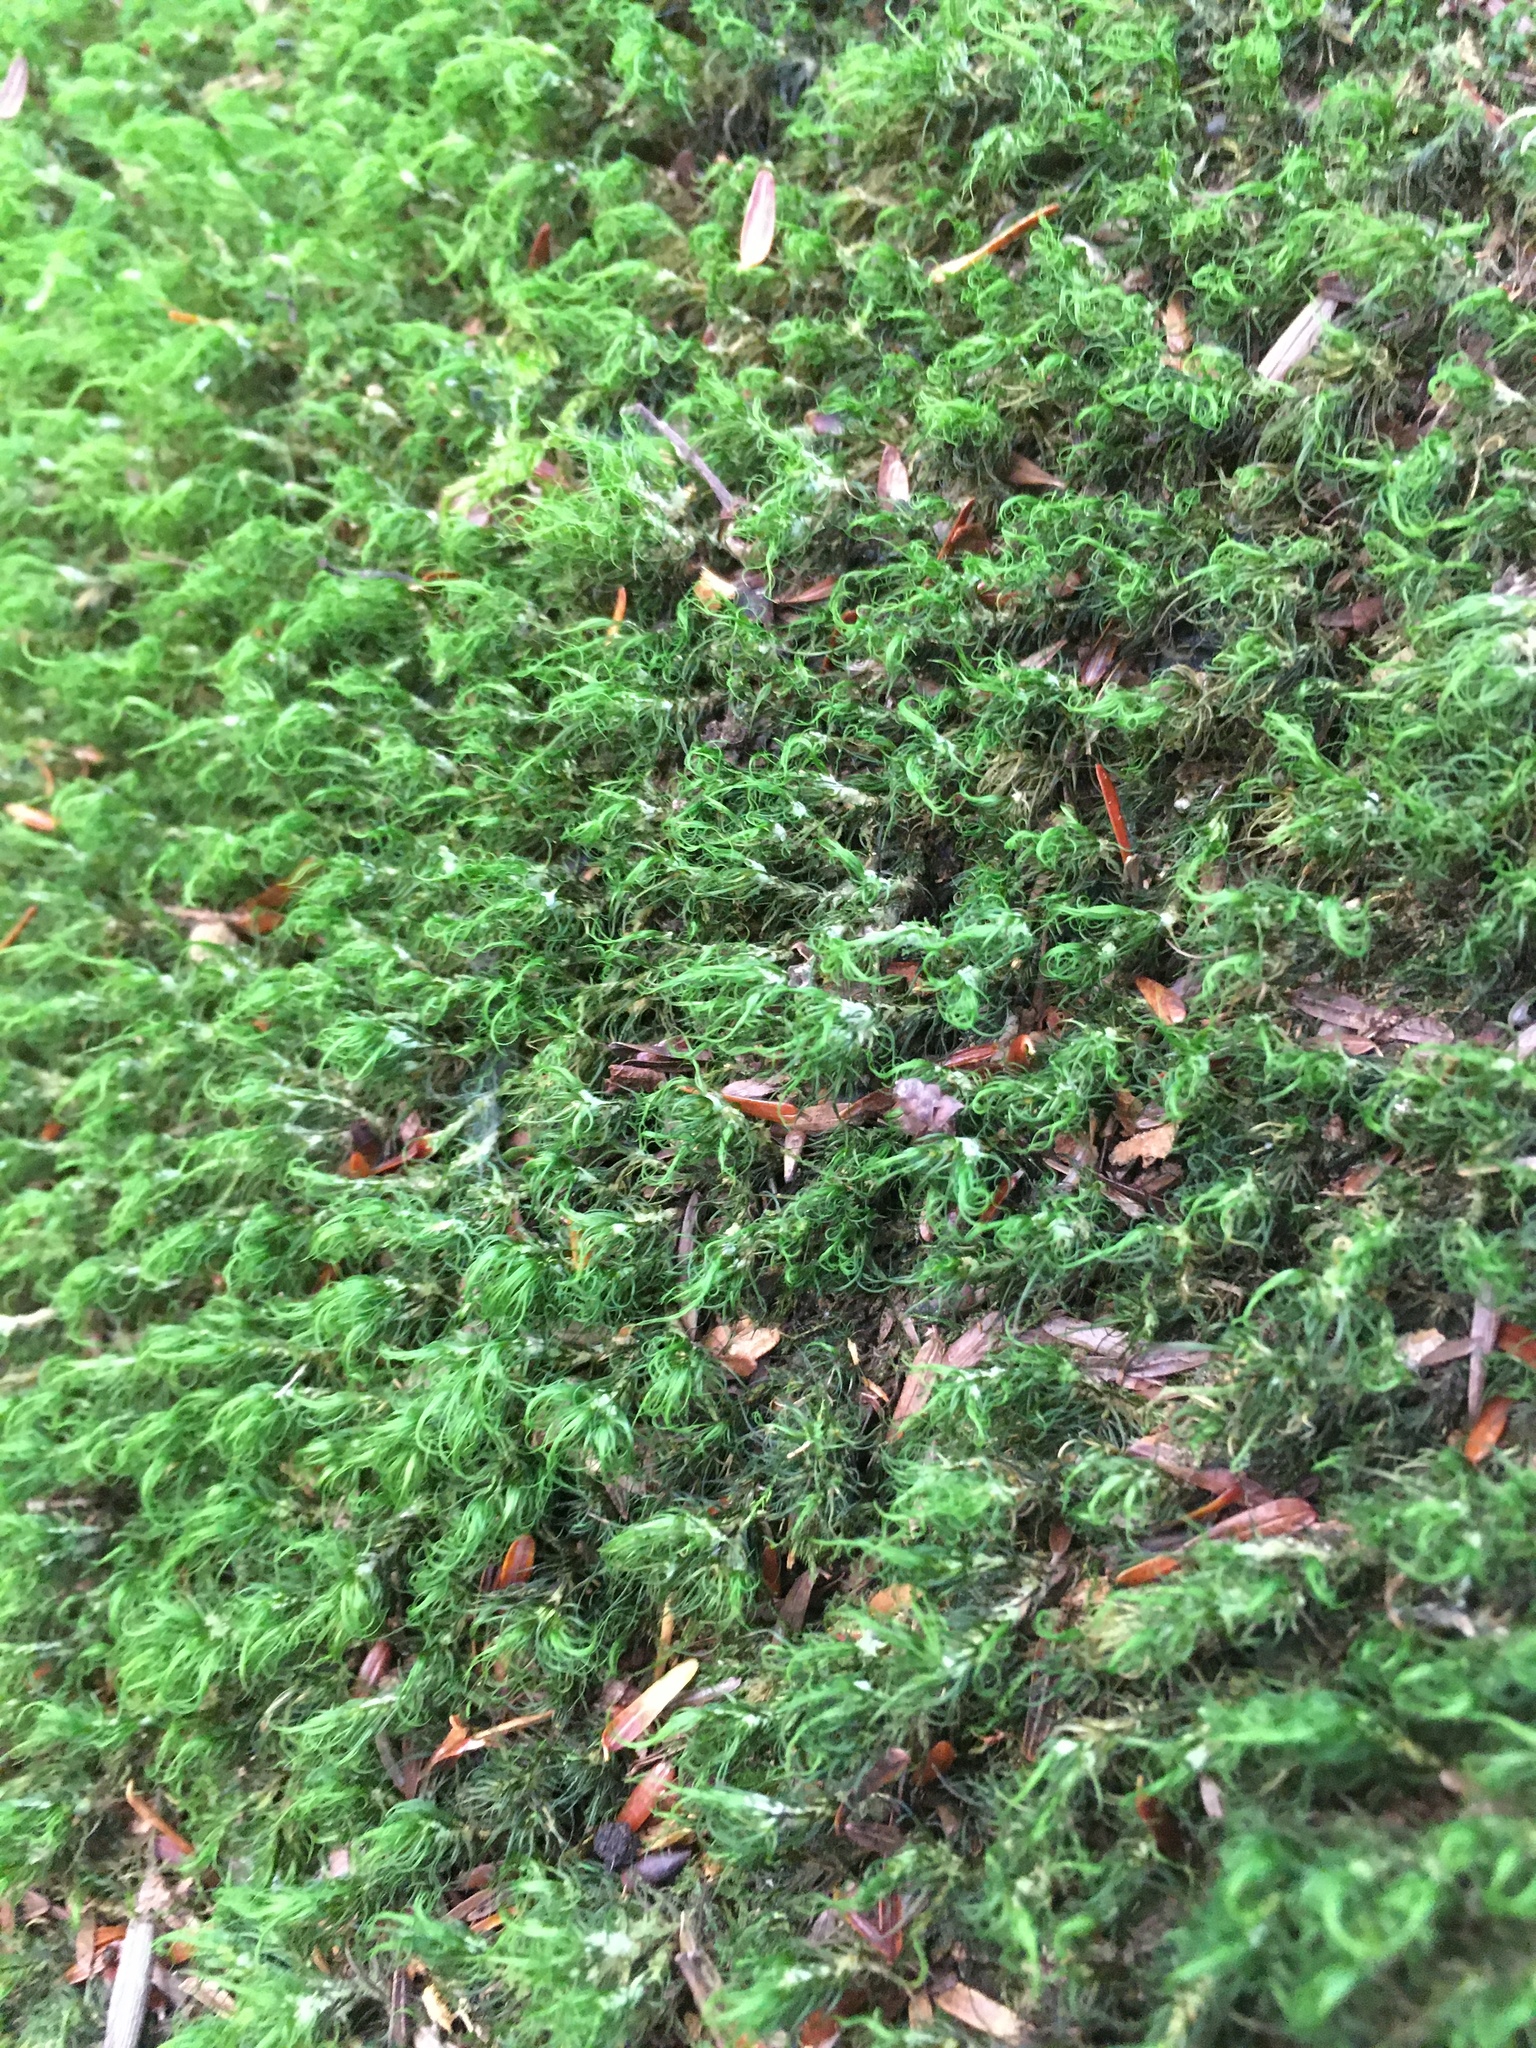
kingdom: Plantae
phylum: Bryophyta
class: Bryopsida
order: Dicranales
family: Dicranaceae
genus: Orthodicranum
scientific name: Orthodicranum montanum
